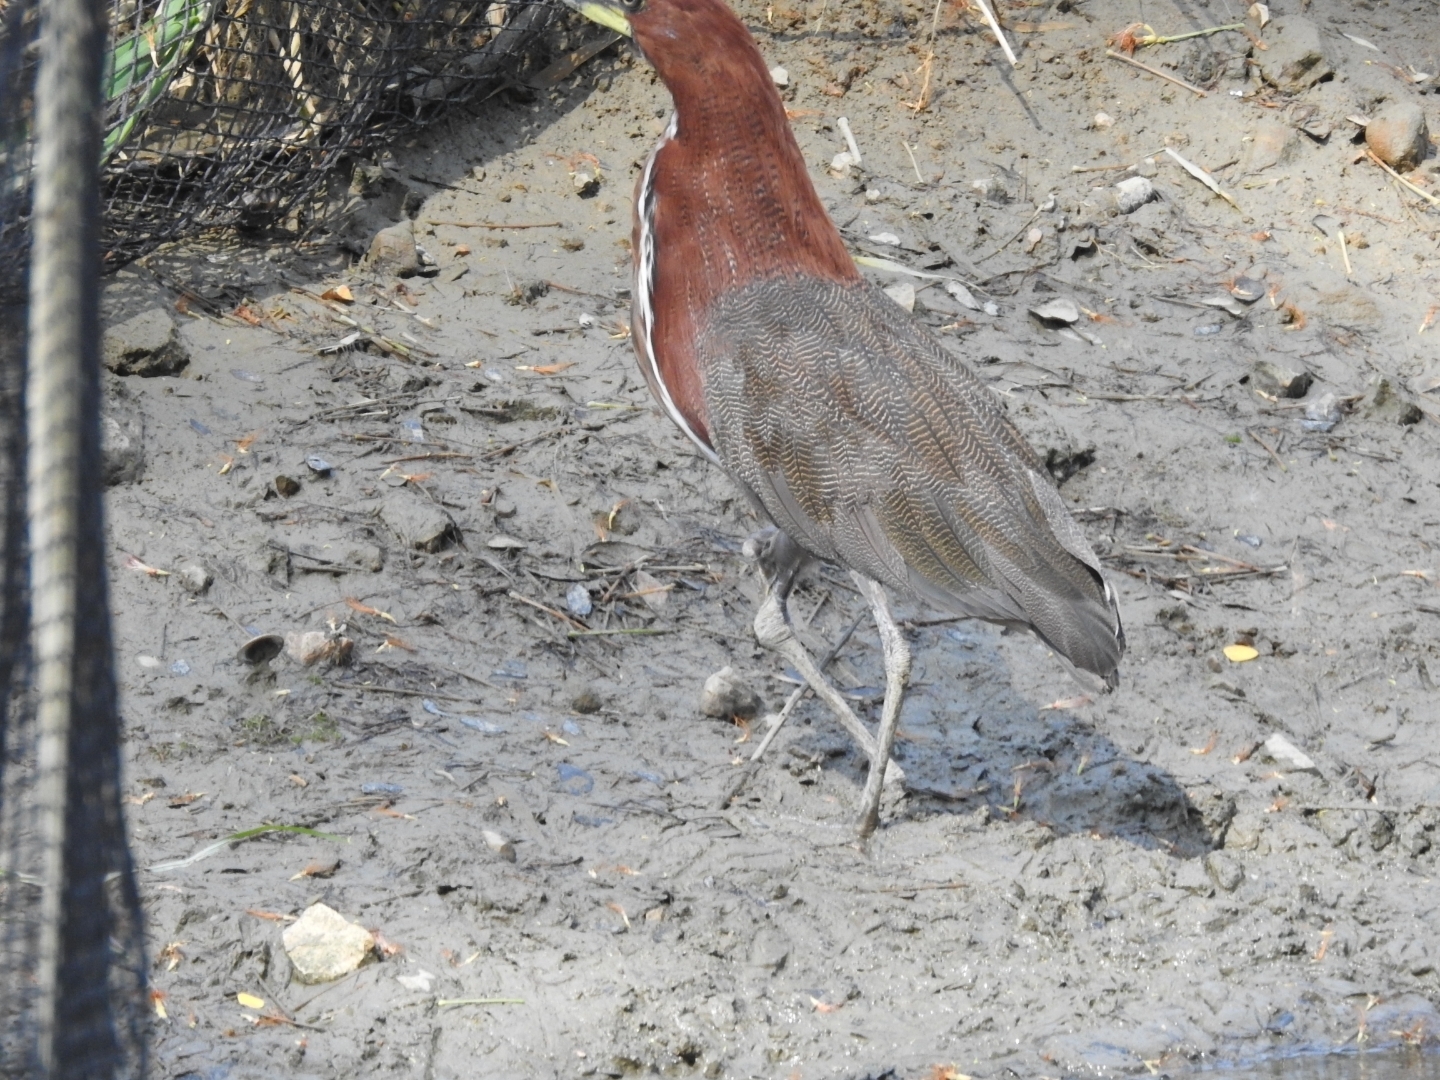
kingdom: Animalia
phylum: Chordata
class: Aves
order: Pelecaniformes
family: Ardeidae
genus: Tigrisoma
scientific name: Tigrisoma lineatum
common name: Rufescent tiger-heron
